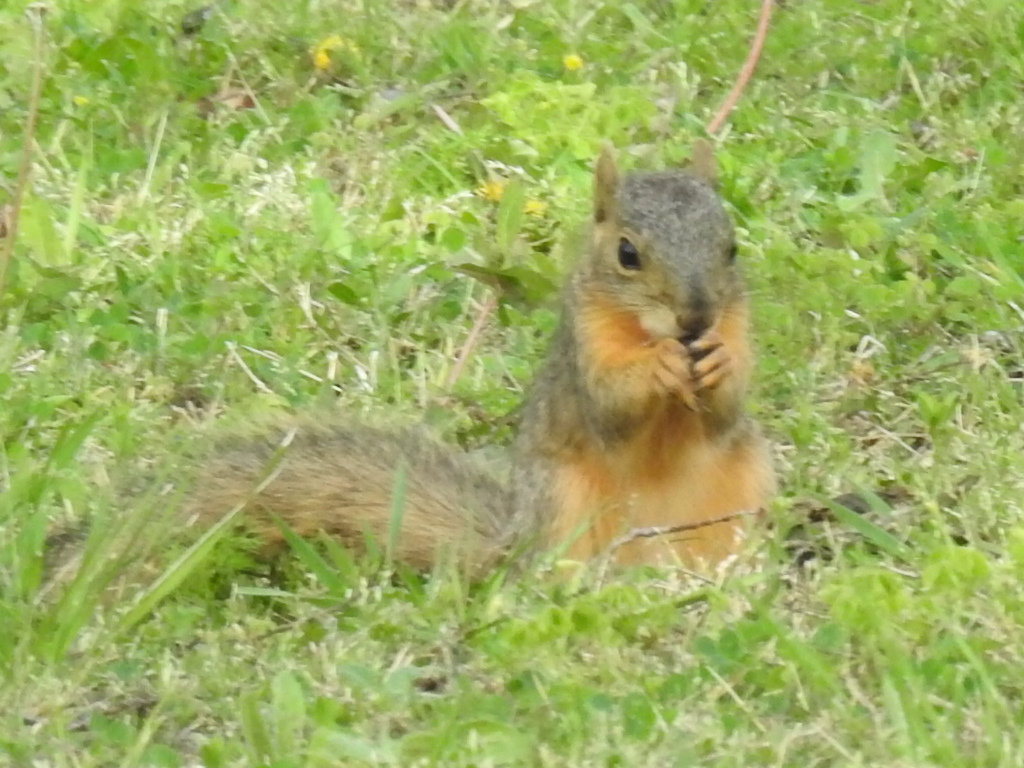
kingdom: Animalia
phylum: Chordata
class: Mammalia
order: Rodentia
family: Sciuridae
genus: Sciurus
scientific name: Sciurus niger
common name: Fox squirrel
